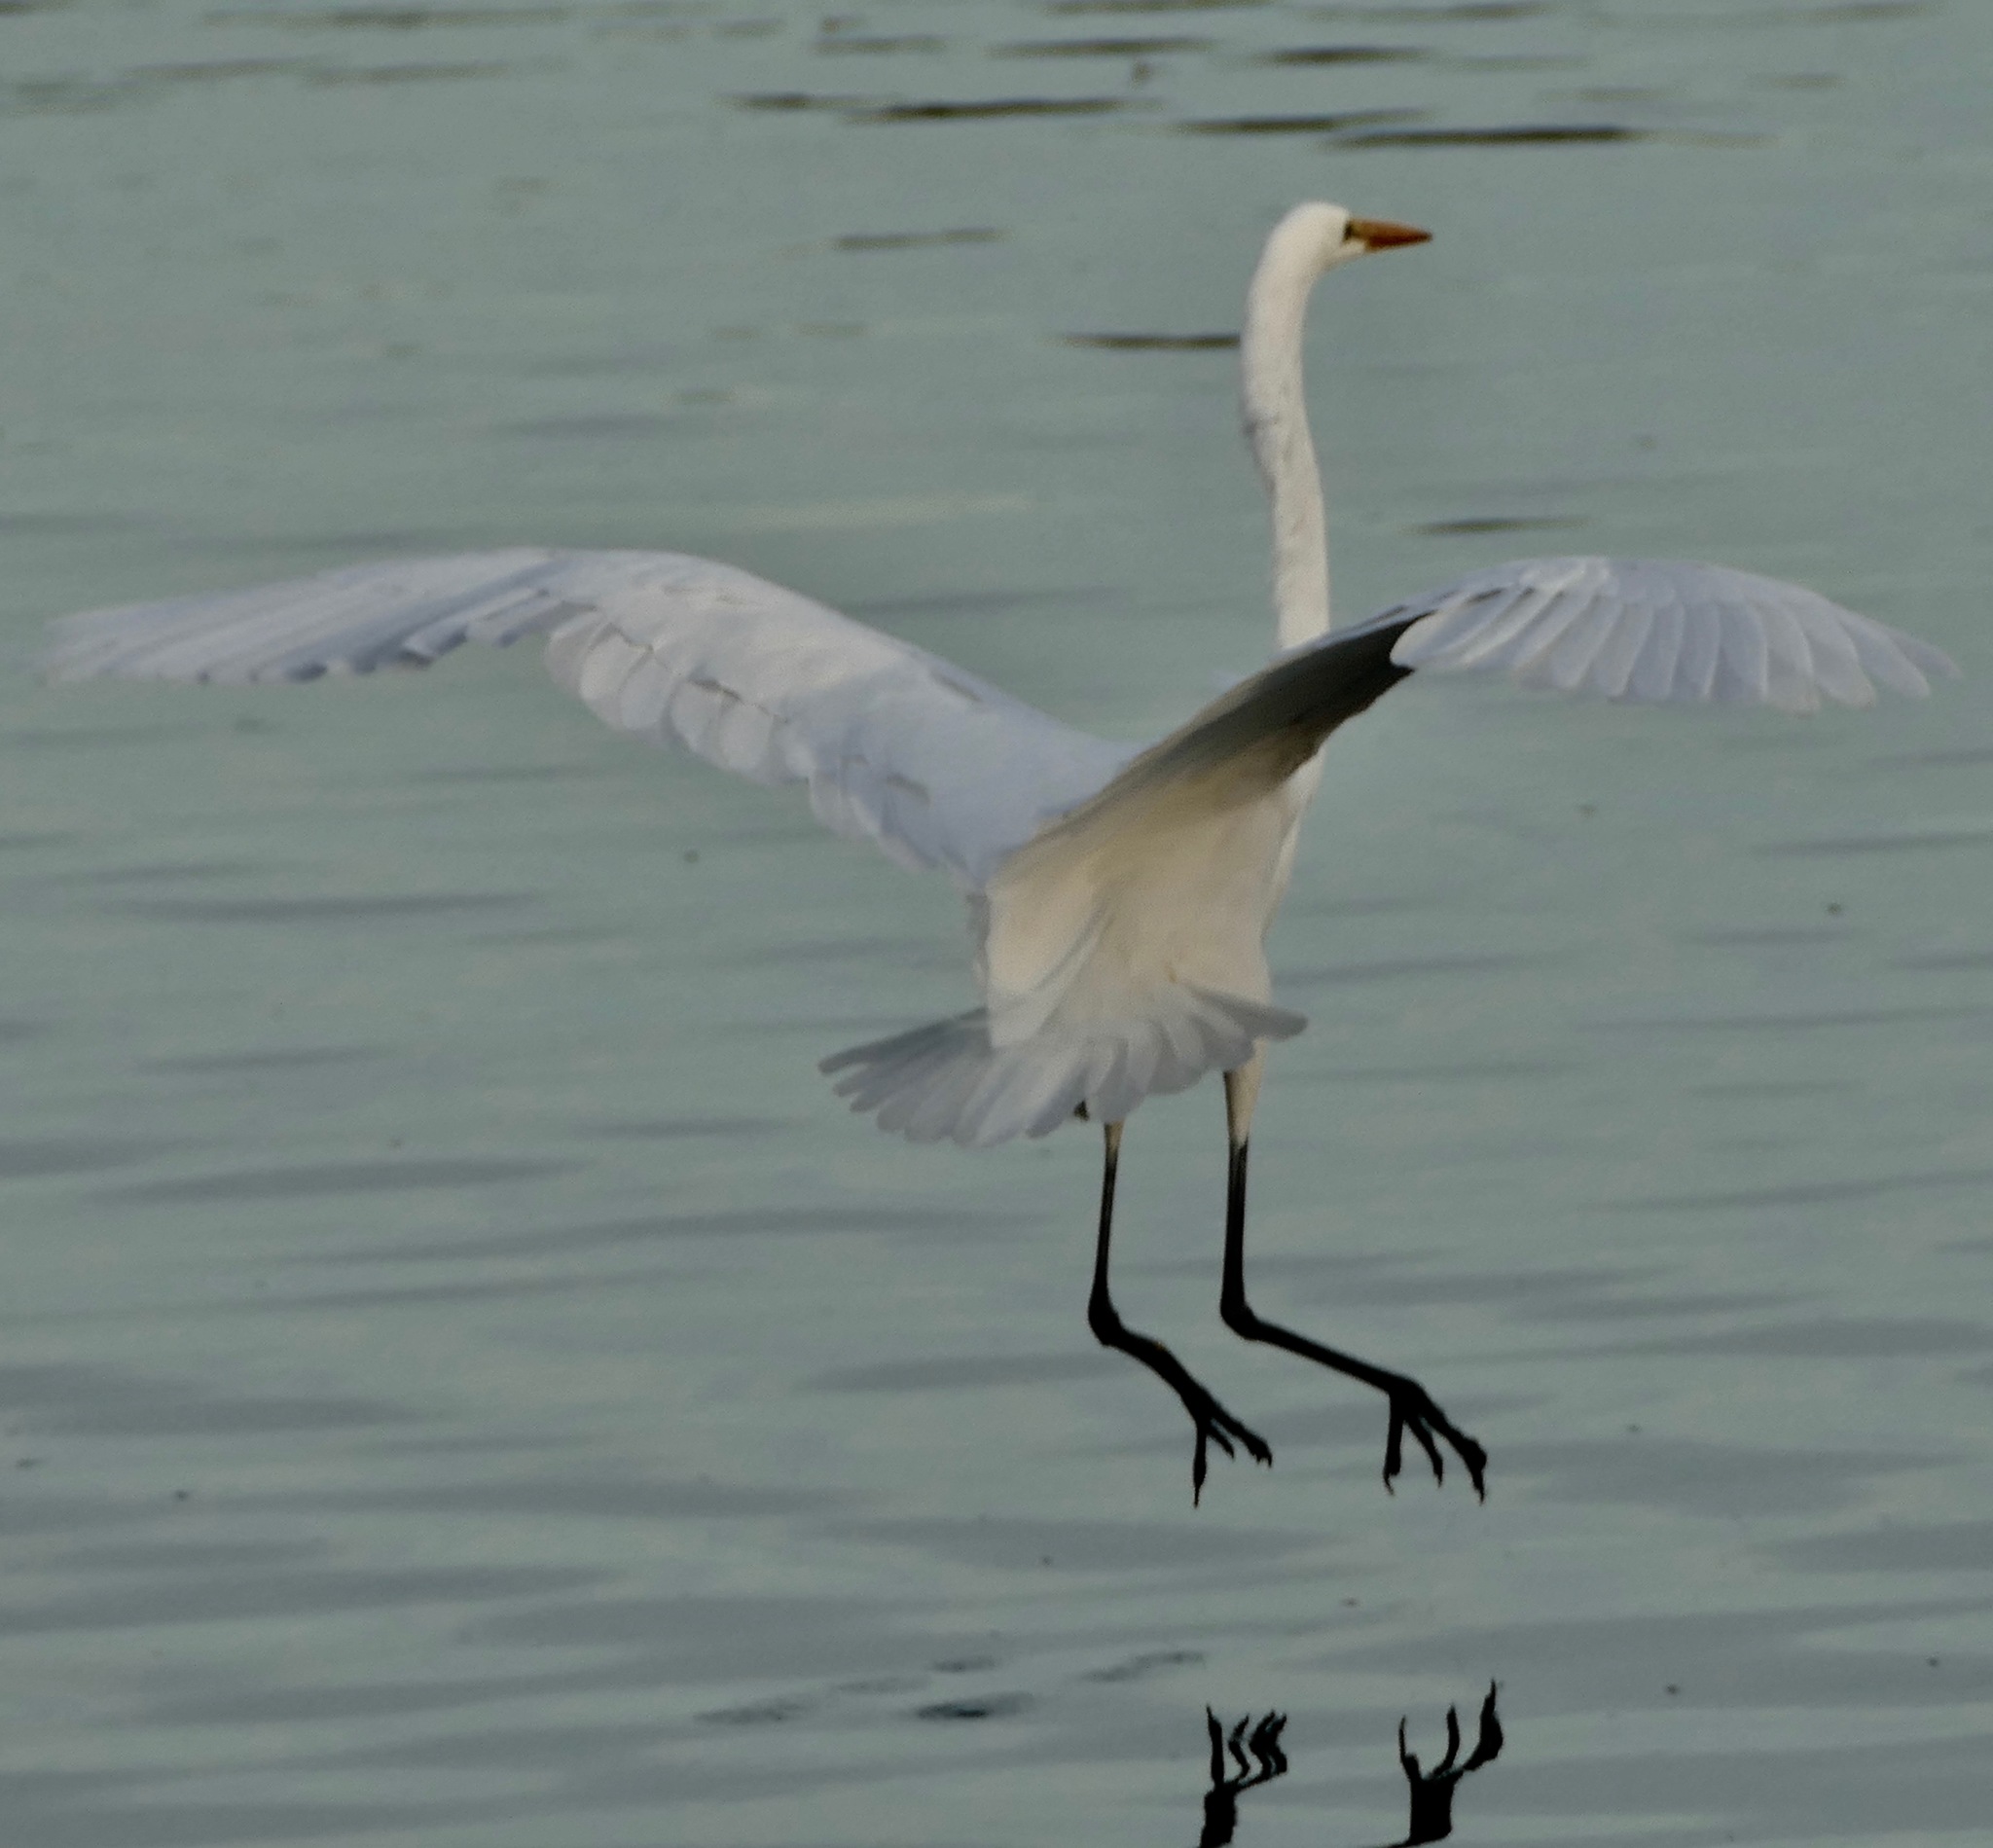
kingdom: Animalia
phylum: Chordata
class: Aves
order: Pelecaniformes
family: Ardeidae
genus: Ardea
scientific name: Ardea alba
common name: Great egret
